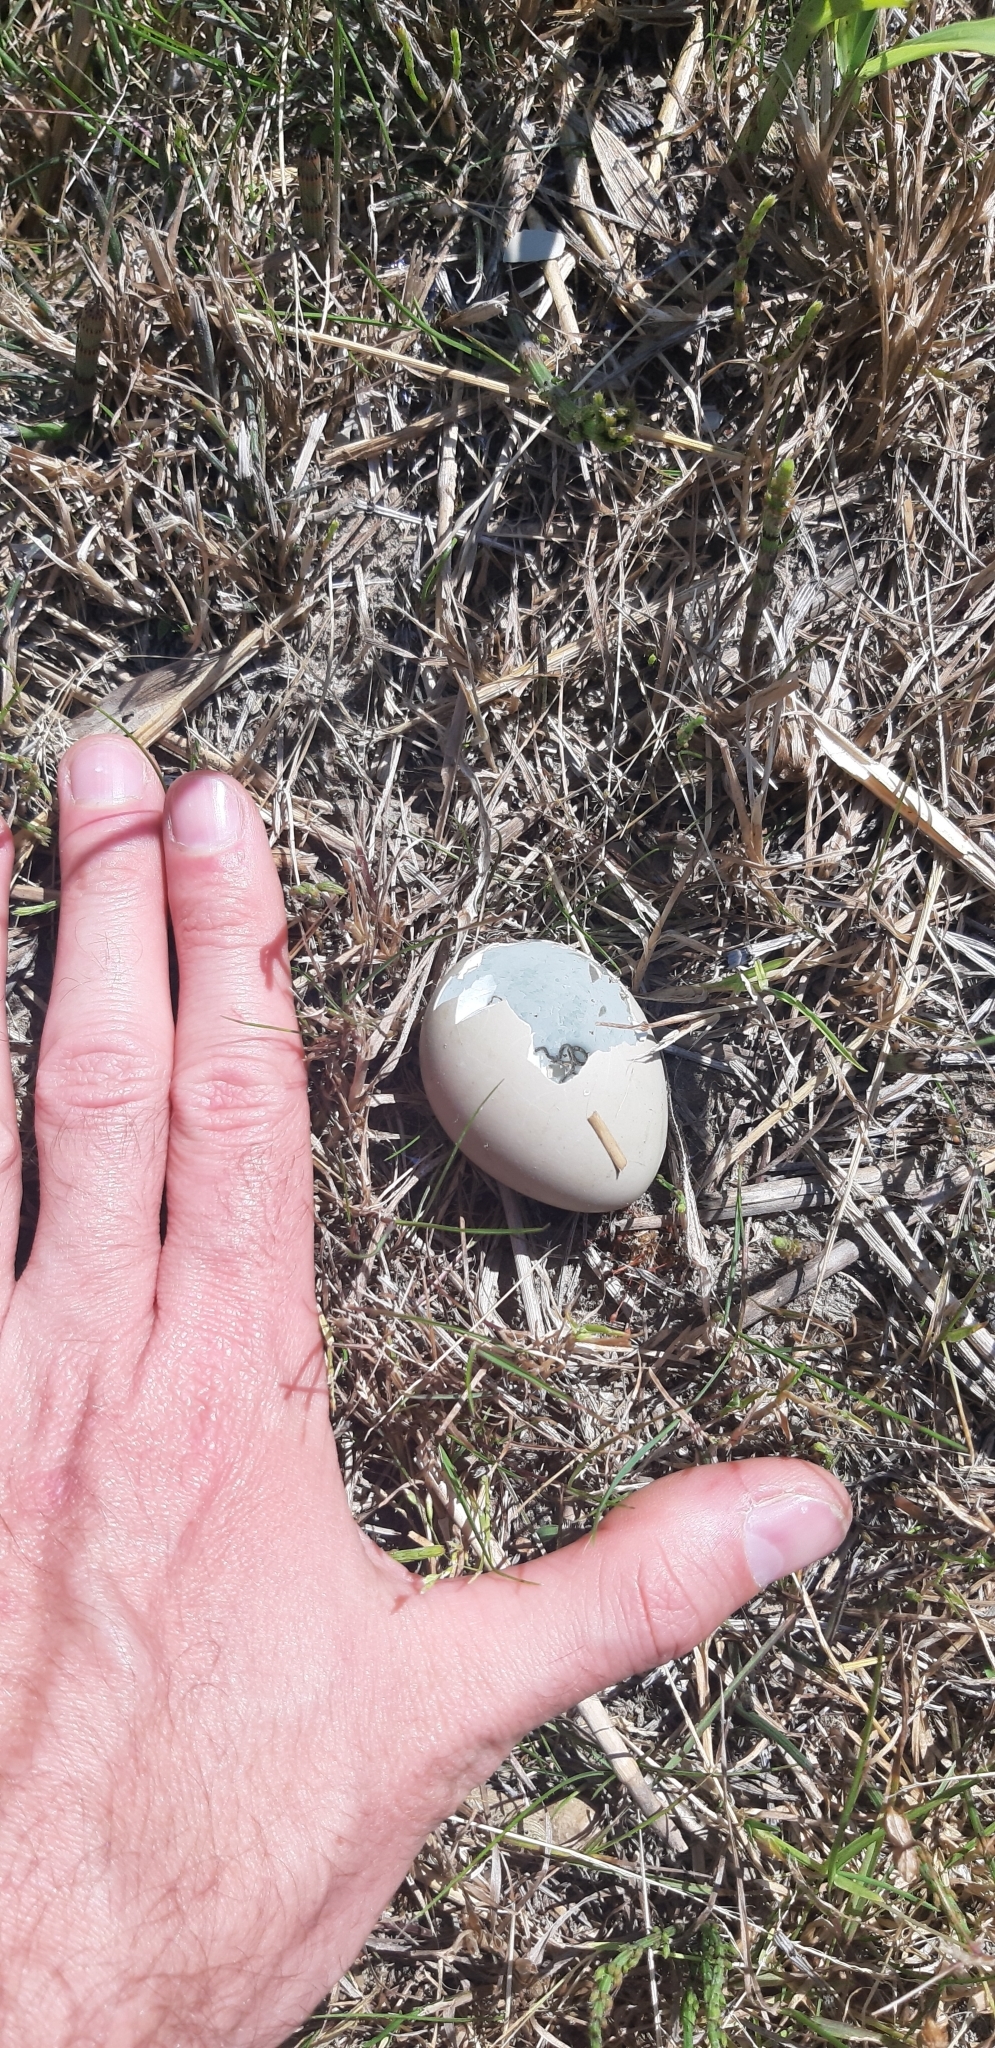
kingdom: Animalia
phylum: Chordata
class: Aves
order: Galliformes
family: Phasianidae
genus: Phasianus
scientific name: Phasianus colchicus
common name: Common pheasant
